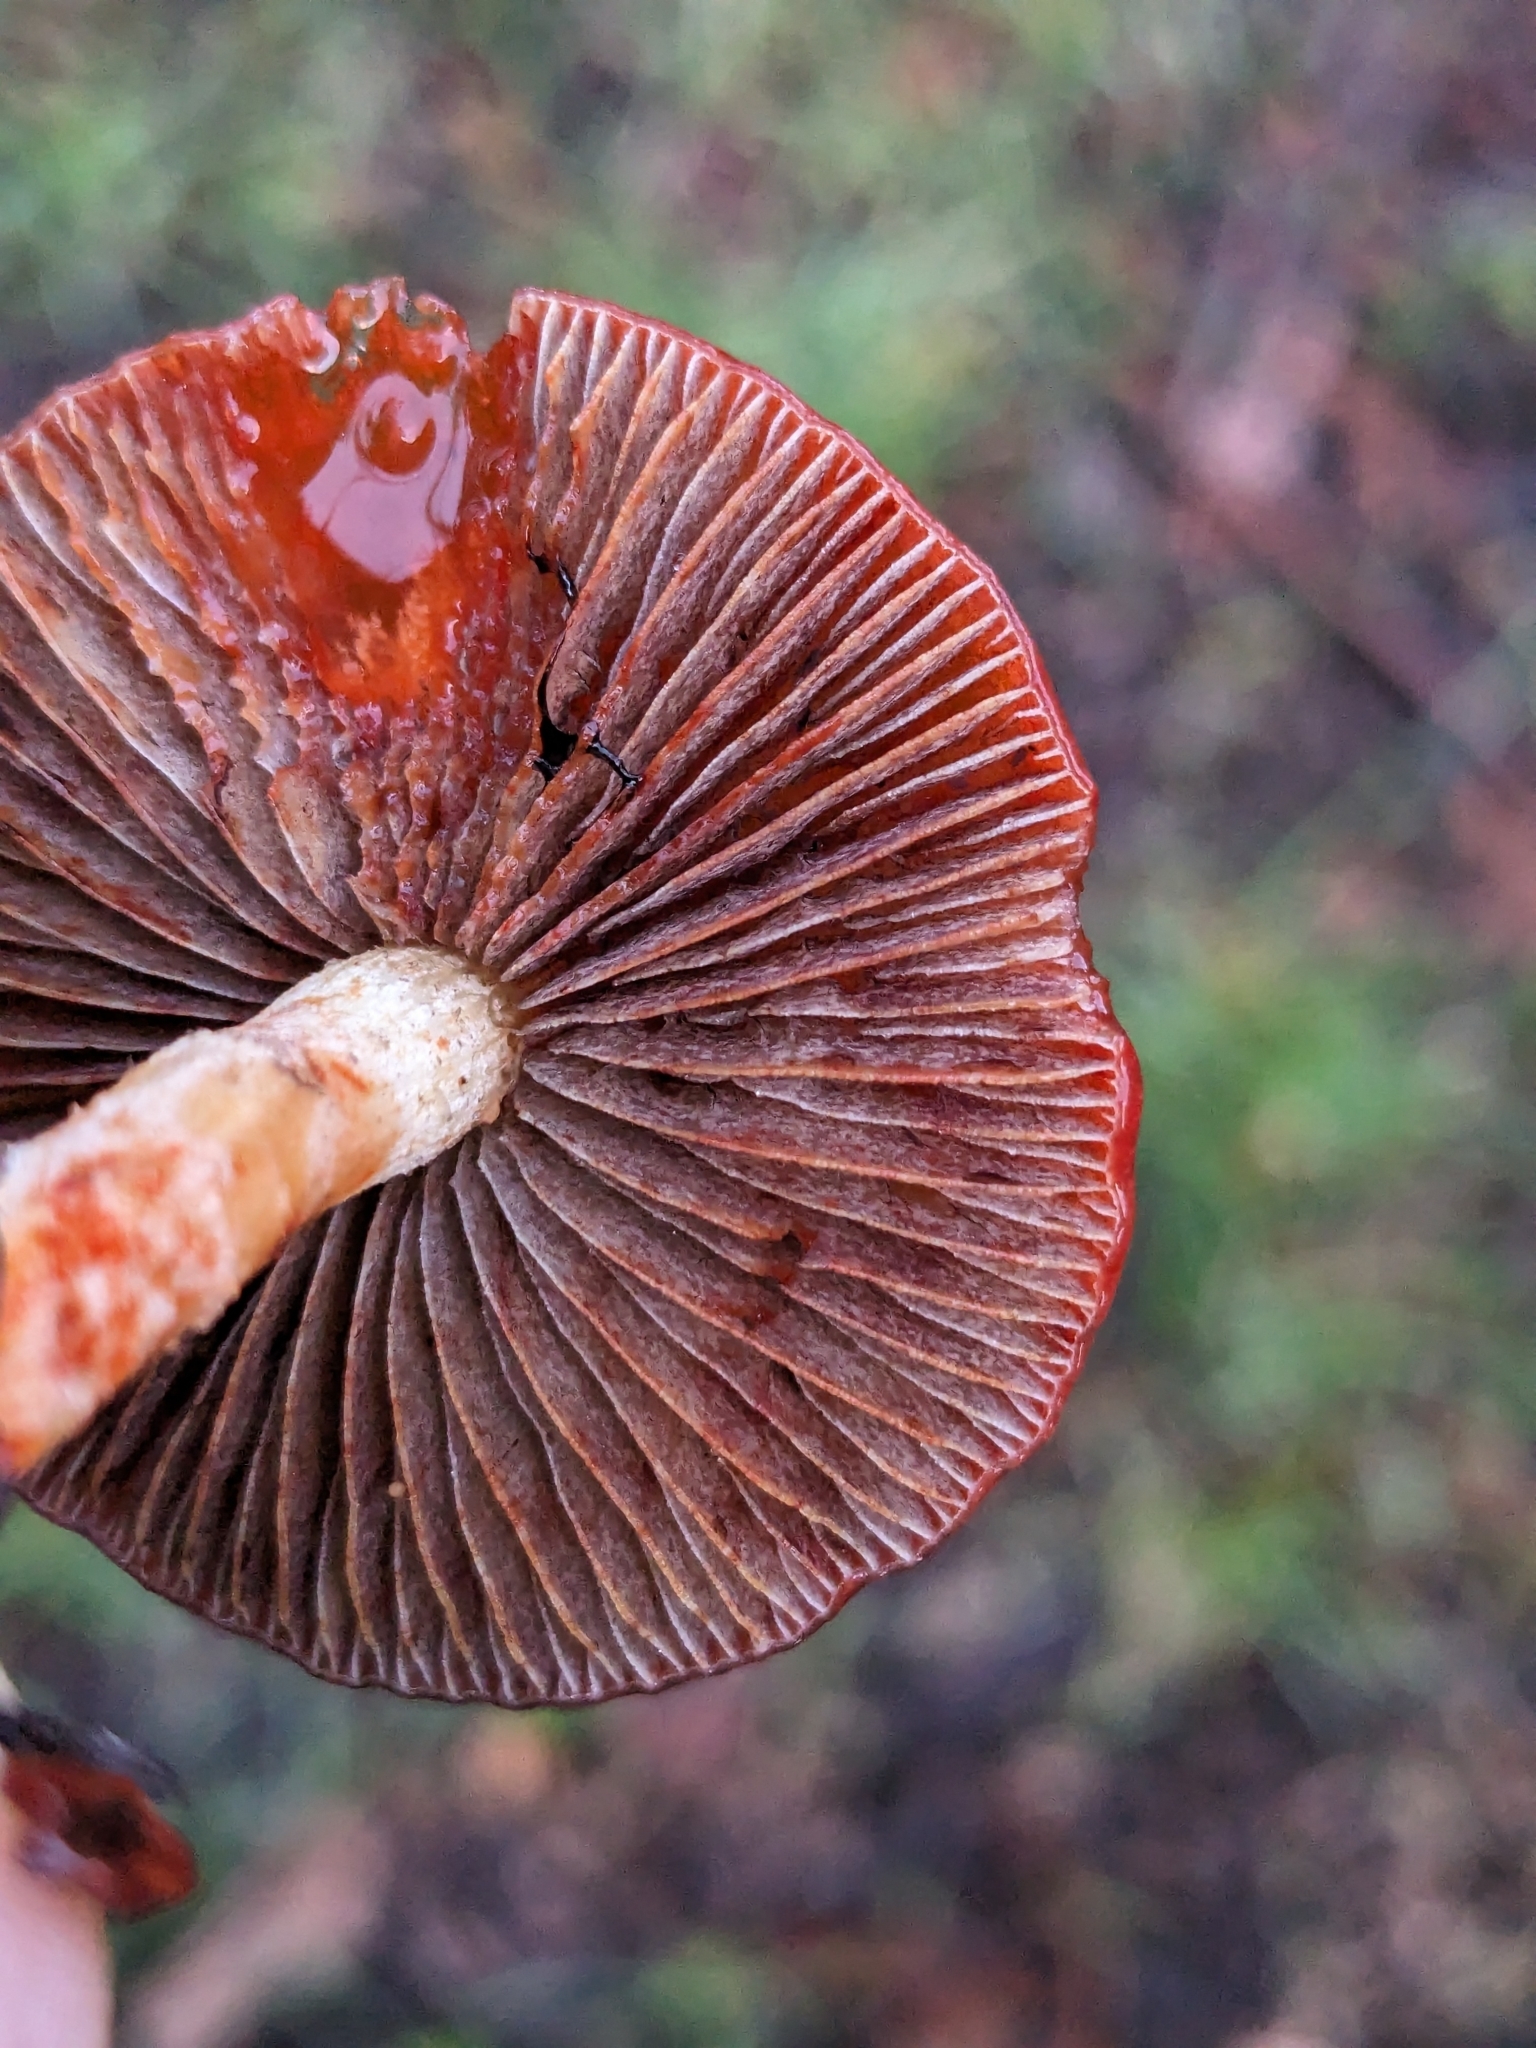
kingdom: Fungi
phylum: Basidiomycota
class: Agaricomycetes
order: Agaricales
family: Strophariaceae
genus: Leratiomyces
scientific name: Leratiomyces ceres
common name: Redlead roundhead
